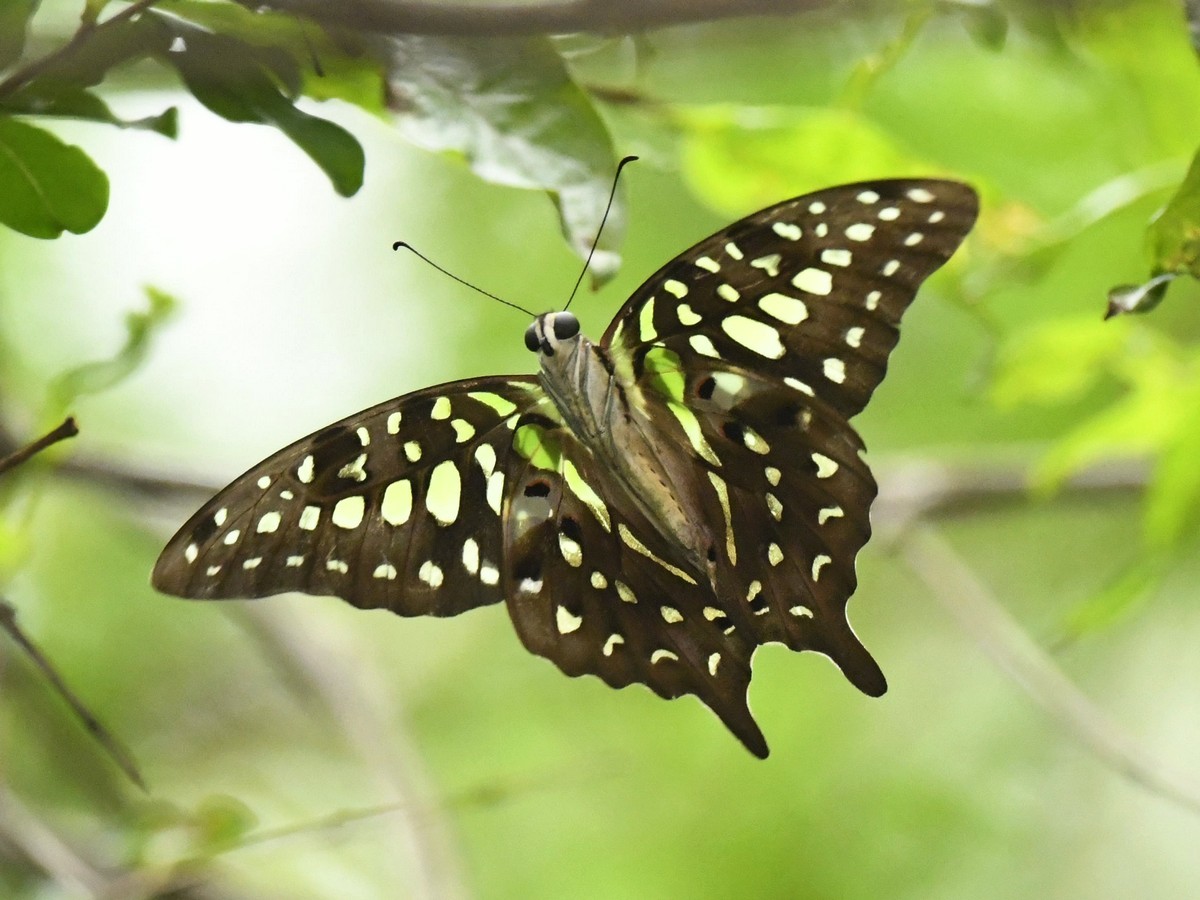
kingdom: Animalia
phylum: Arthropoda
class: Insecta
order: Lepidoptera
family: Papilionidae
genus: Graphium
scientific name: Graphium agamemnon
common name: Tailed jay
